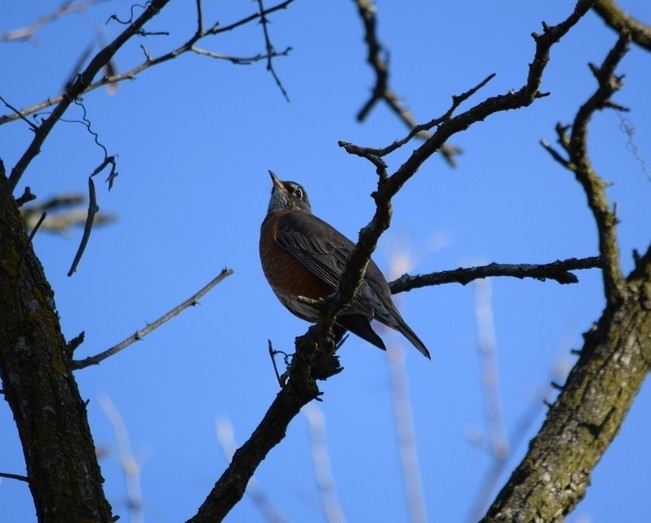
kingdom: Animalia
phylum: Chordata
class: Aves
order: Passeriformes
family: Turdidae
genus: Turdus
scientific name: Turdus migratorius
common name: American robin
